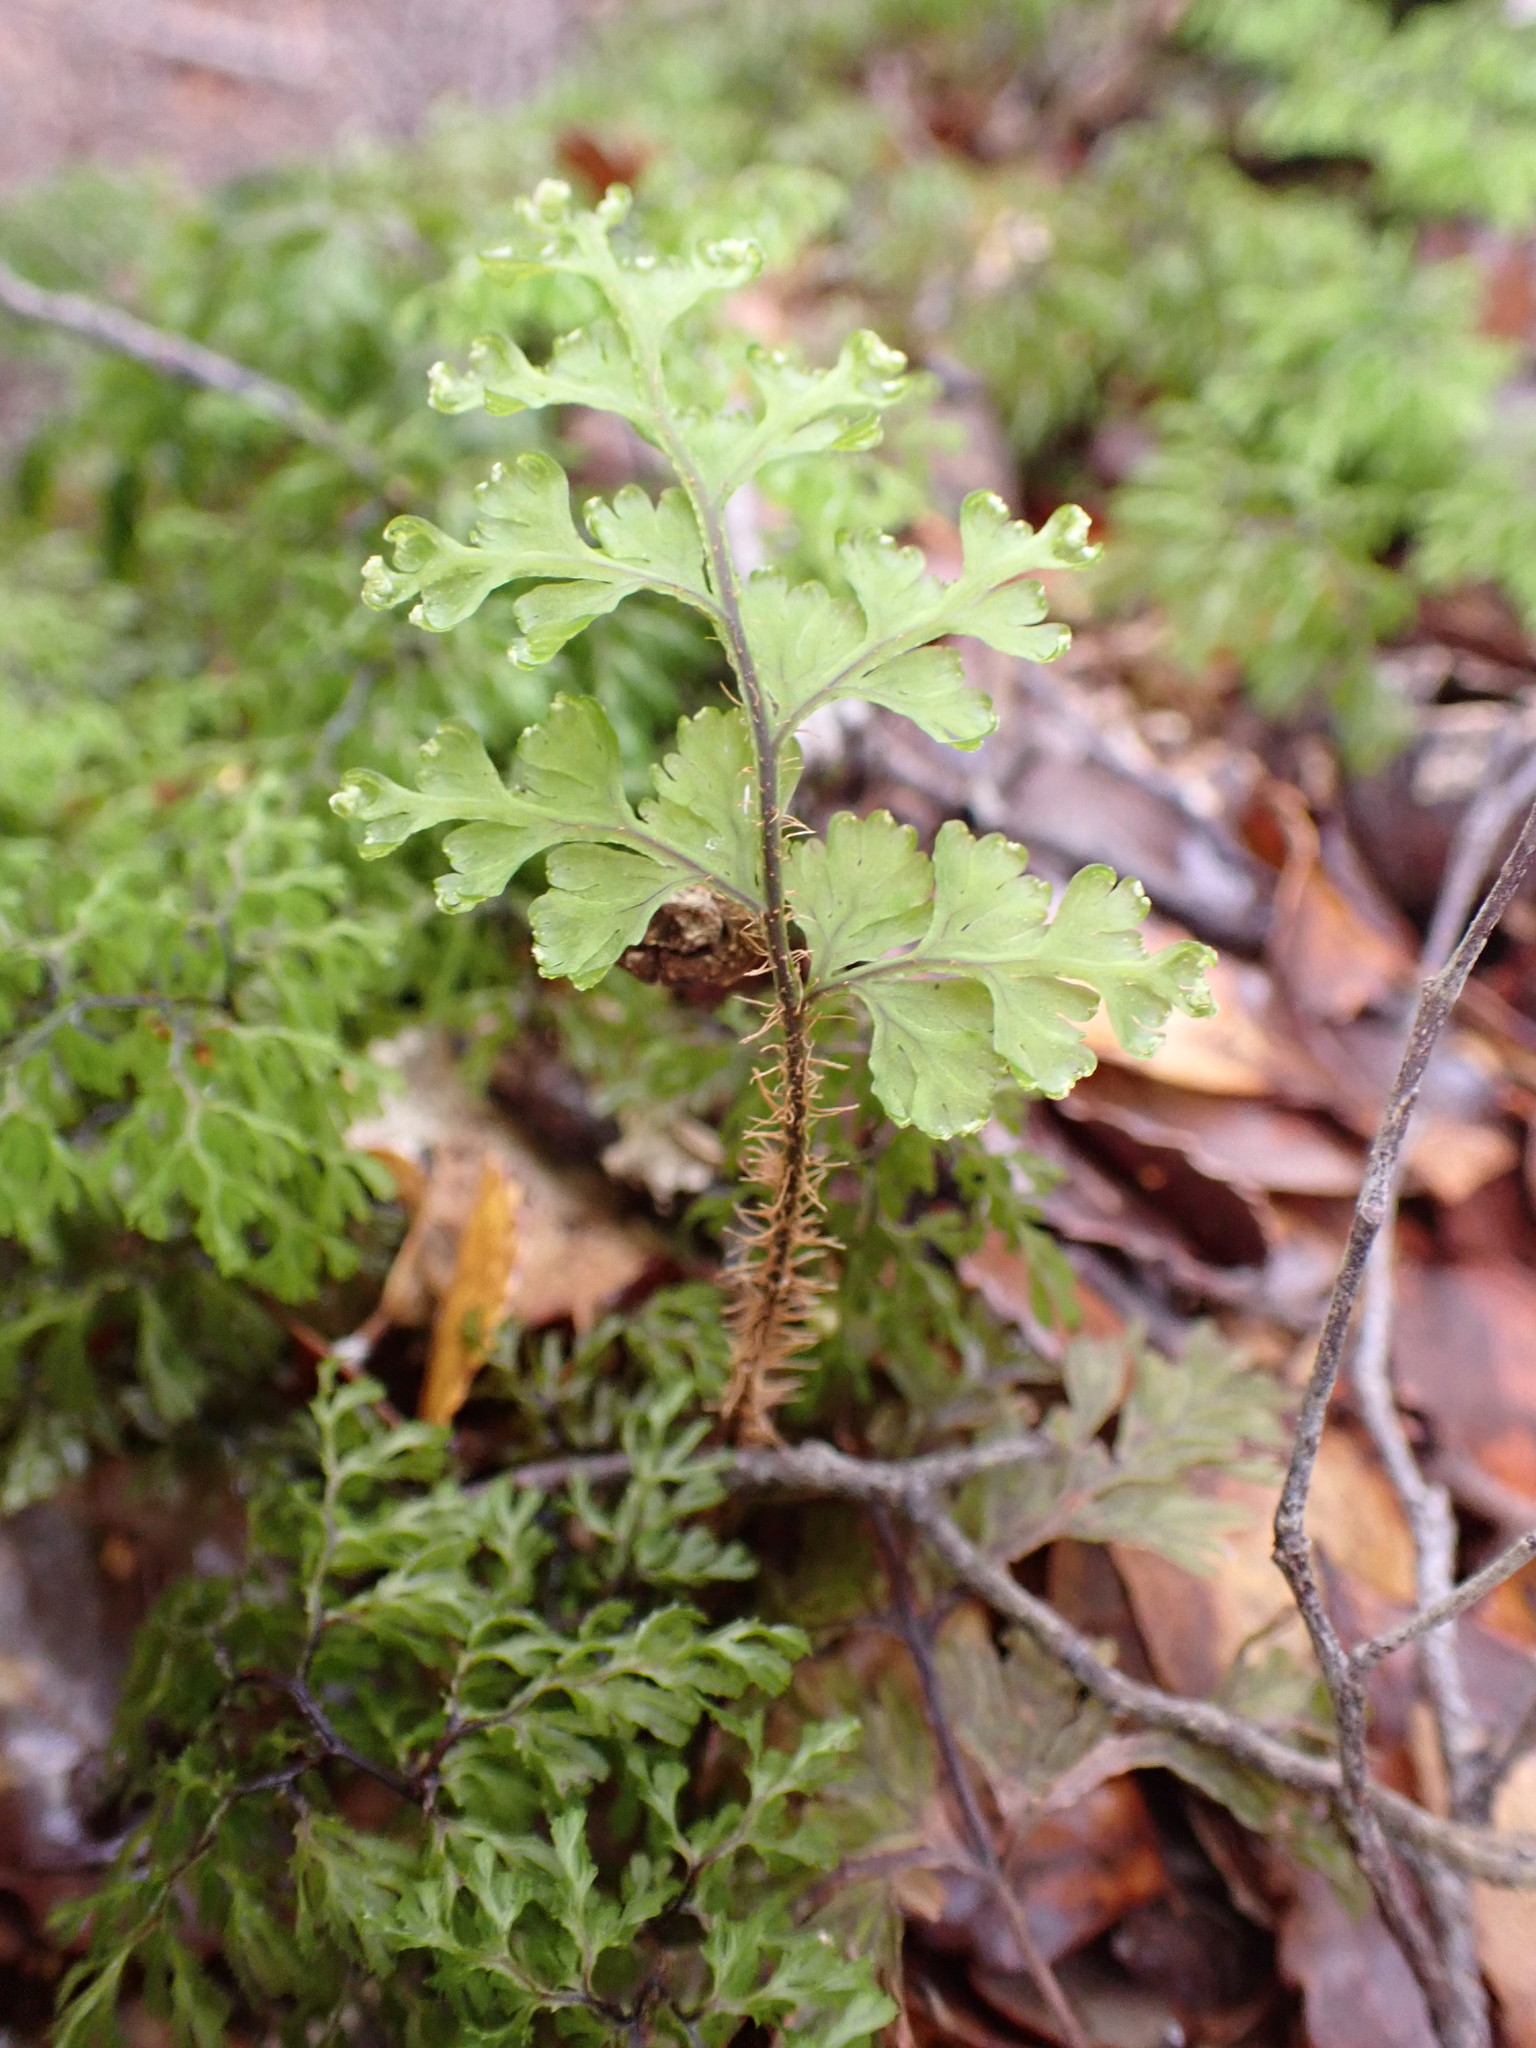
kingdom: Plantae
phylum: Tracheophyta
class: Polypodiopsida
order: Hymenophyllales
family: Hymenophyllaceae
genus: Hymenophyllum
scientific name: Hymenophyllum scabrum
